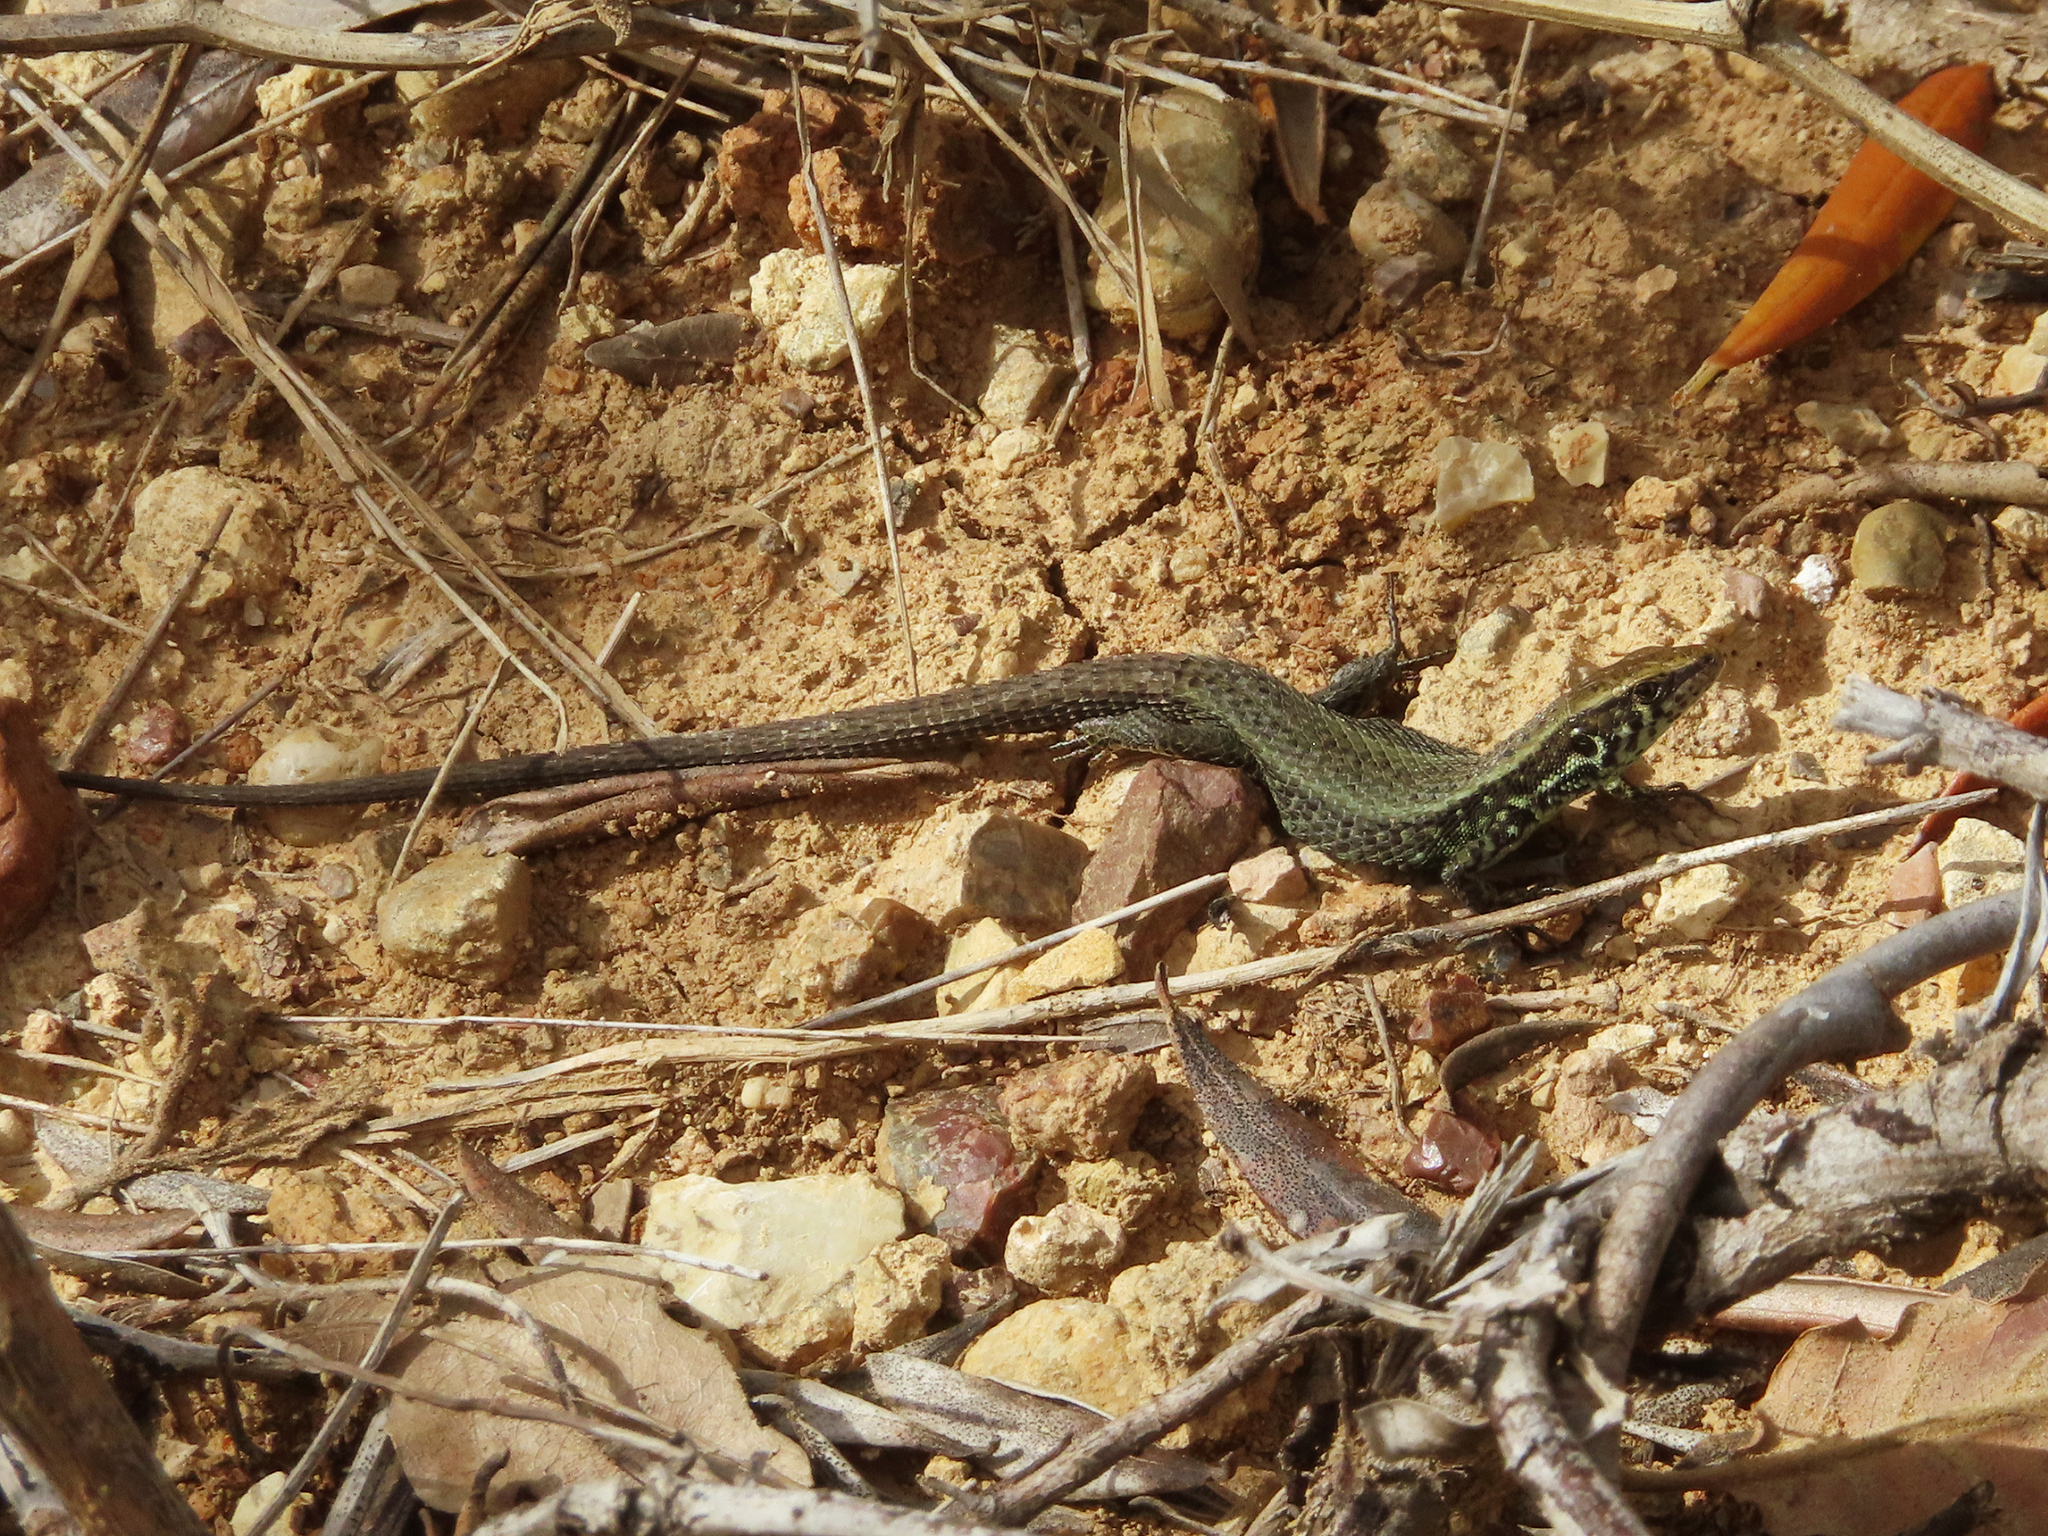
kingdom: Animalia
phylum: Chordata
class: Squamata
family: Lacertidae
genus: Algyroides
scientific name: Algyroides moreoticus
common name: Greek algyroides
